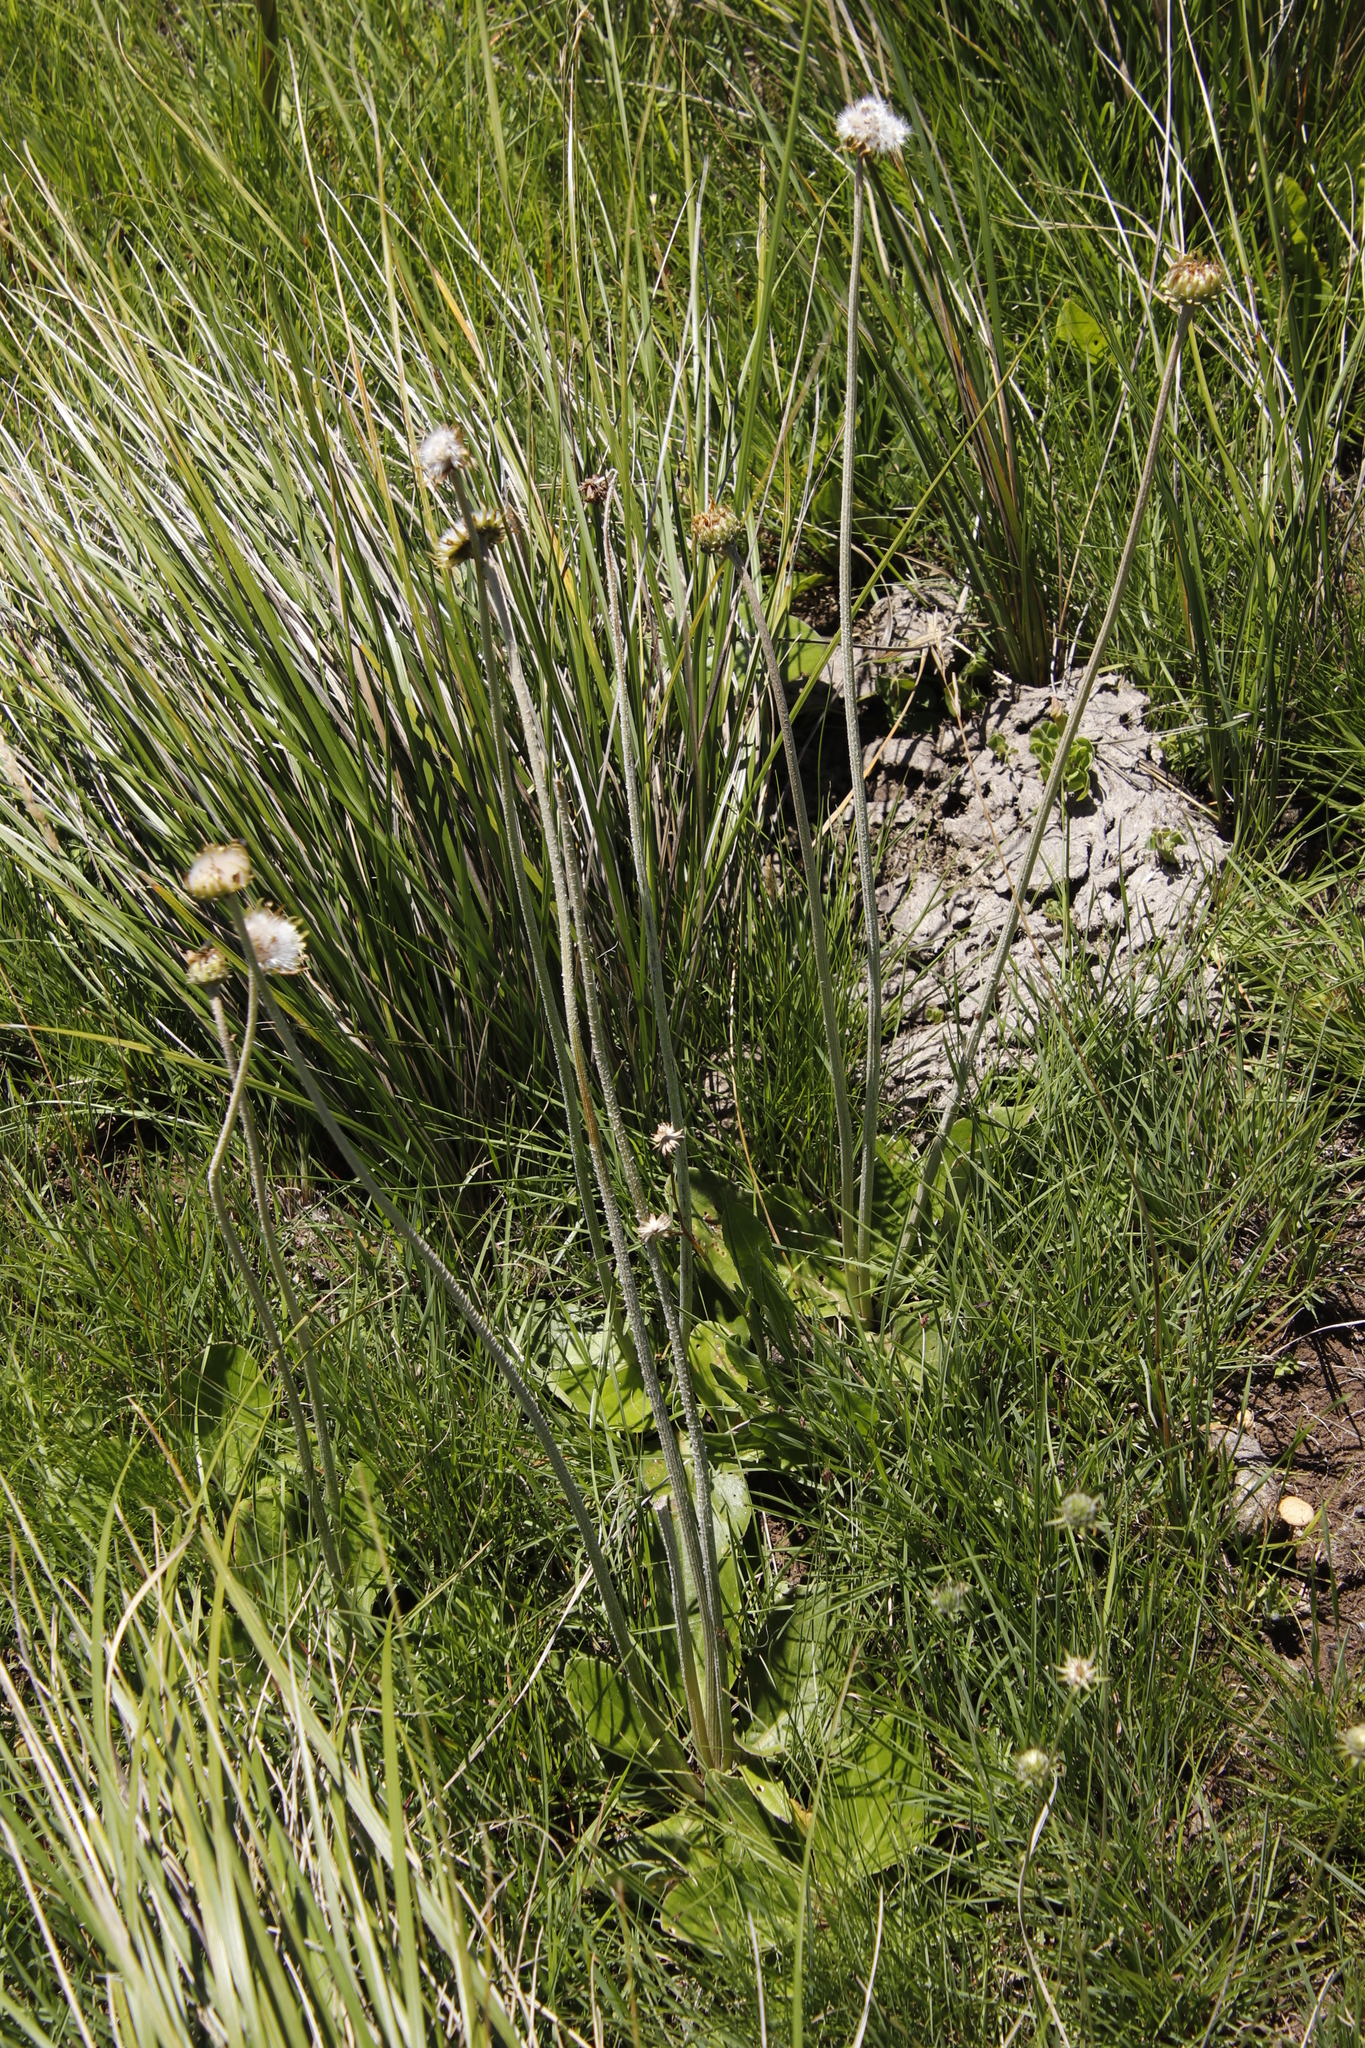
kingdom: Plantae
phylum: Tracheophyta
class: Magnoliopsida
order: Asterales
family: Asteraceae
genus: Haplocarpha
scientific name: Haplocarpha scaposa
